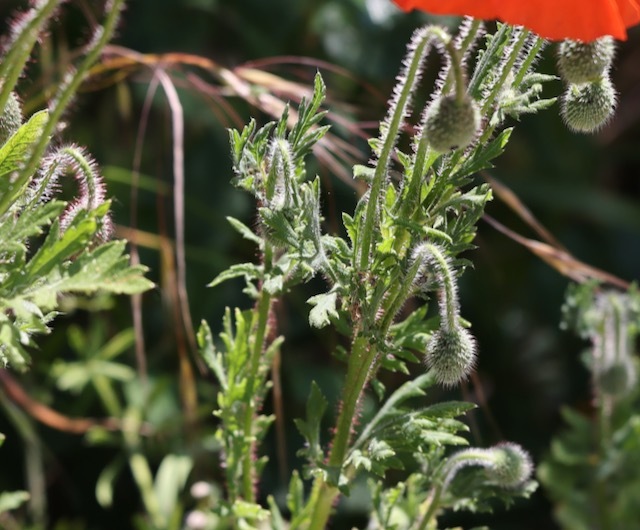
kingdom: Plantae
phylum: Tracheophyta
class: Magnoliopsida
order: Ranunculales
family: Papaveraceae
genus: Papaver
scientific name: Papaver rhoeas
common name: Corn poppy
